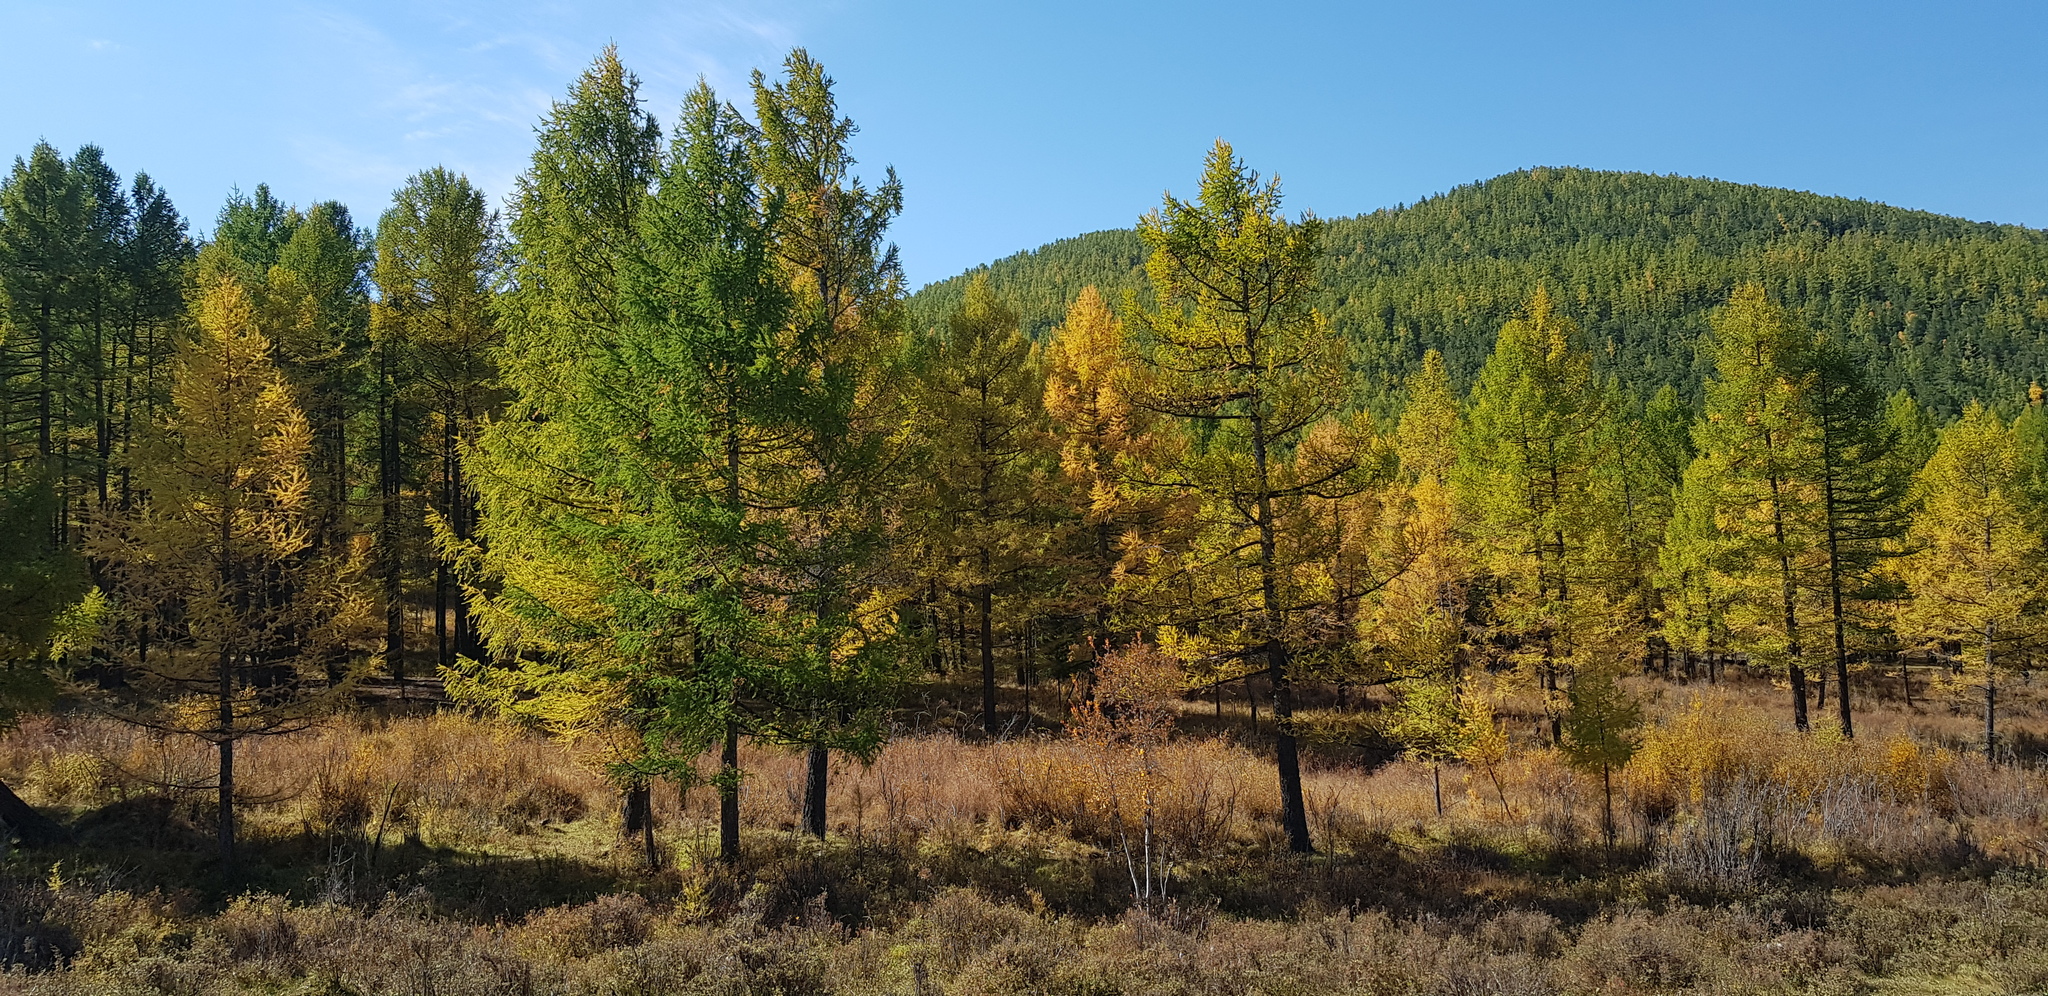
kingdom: Plantae
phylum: Tracheophyta
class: Pinopsida
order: Pinales
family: Pinaceae
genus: Larix
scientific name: Larix sibirica
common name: Siberian larch
